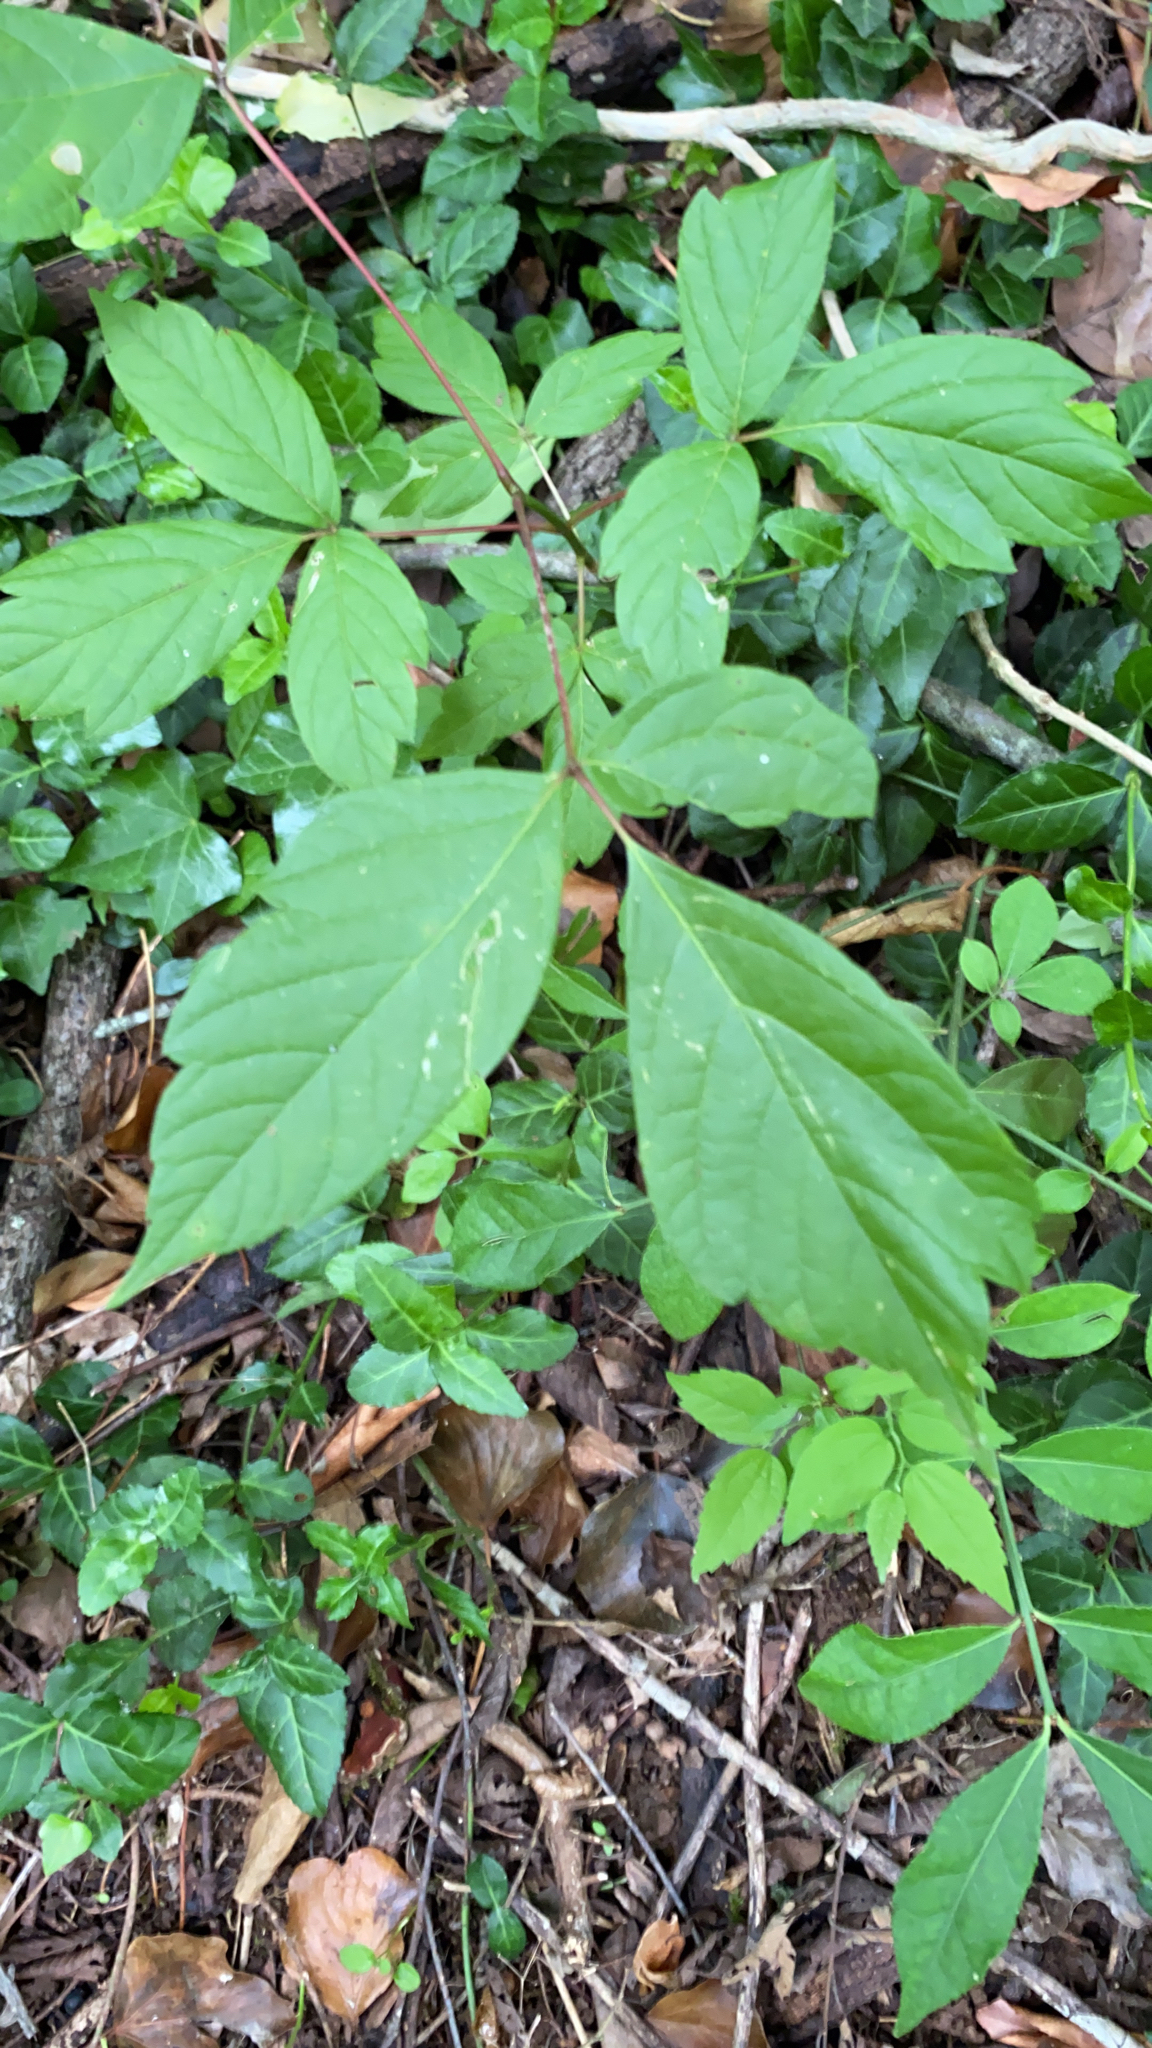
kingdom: Plantae
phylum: Tracheophyta
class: Magnoliopsida
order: Sapindales
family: Sapindaceae
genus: Acer
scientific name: Acer negundo
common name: Ashleaf maple
